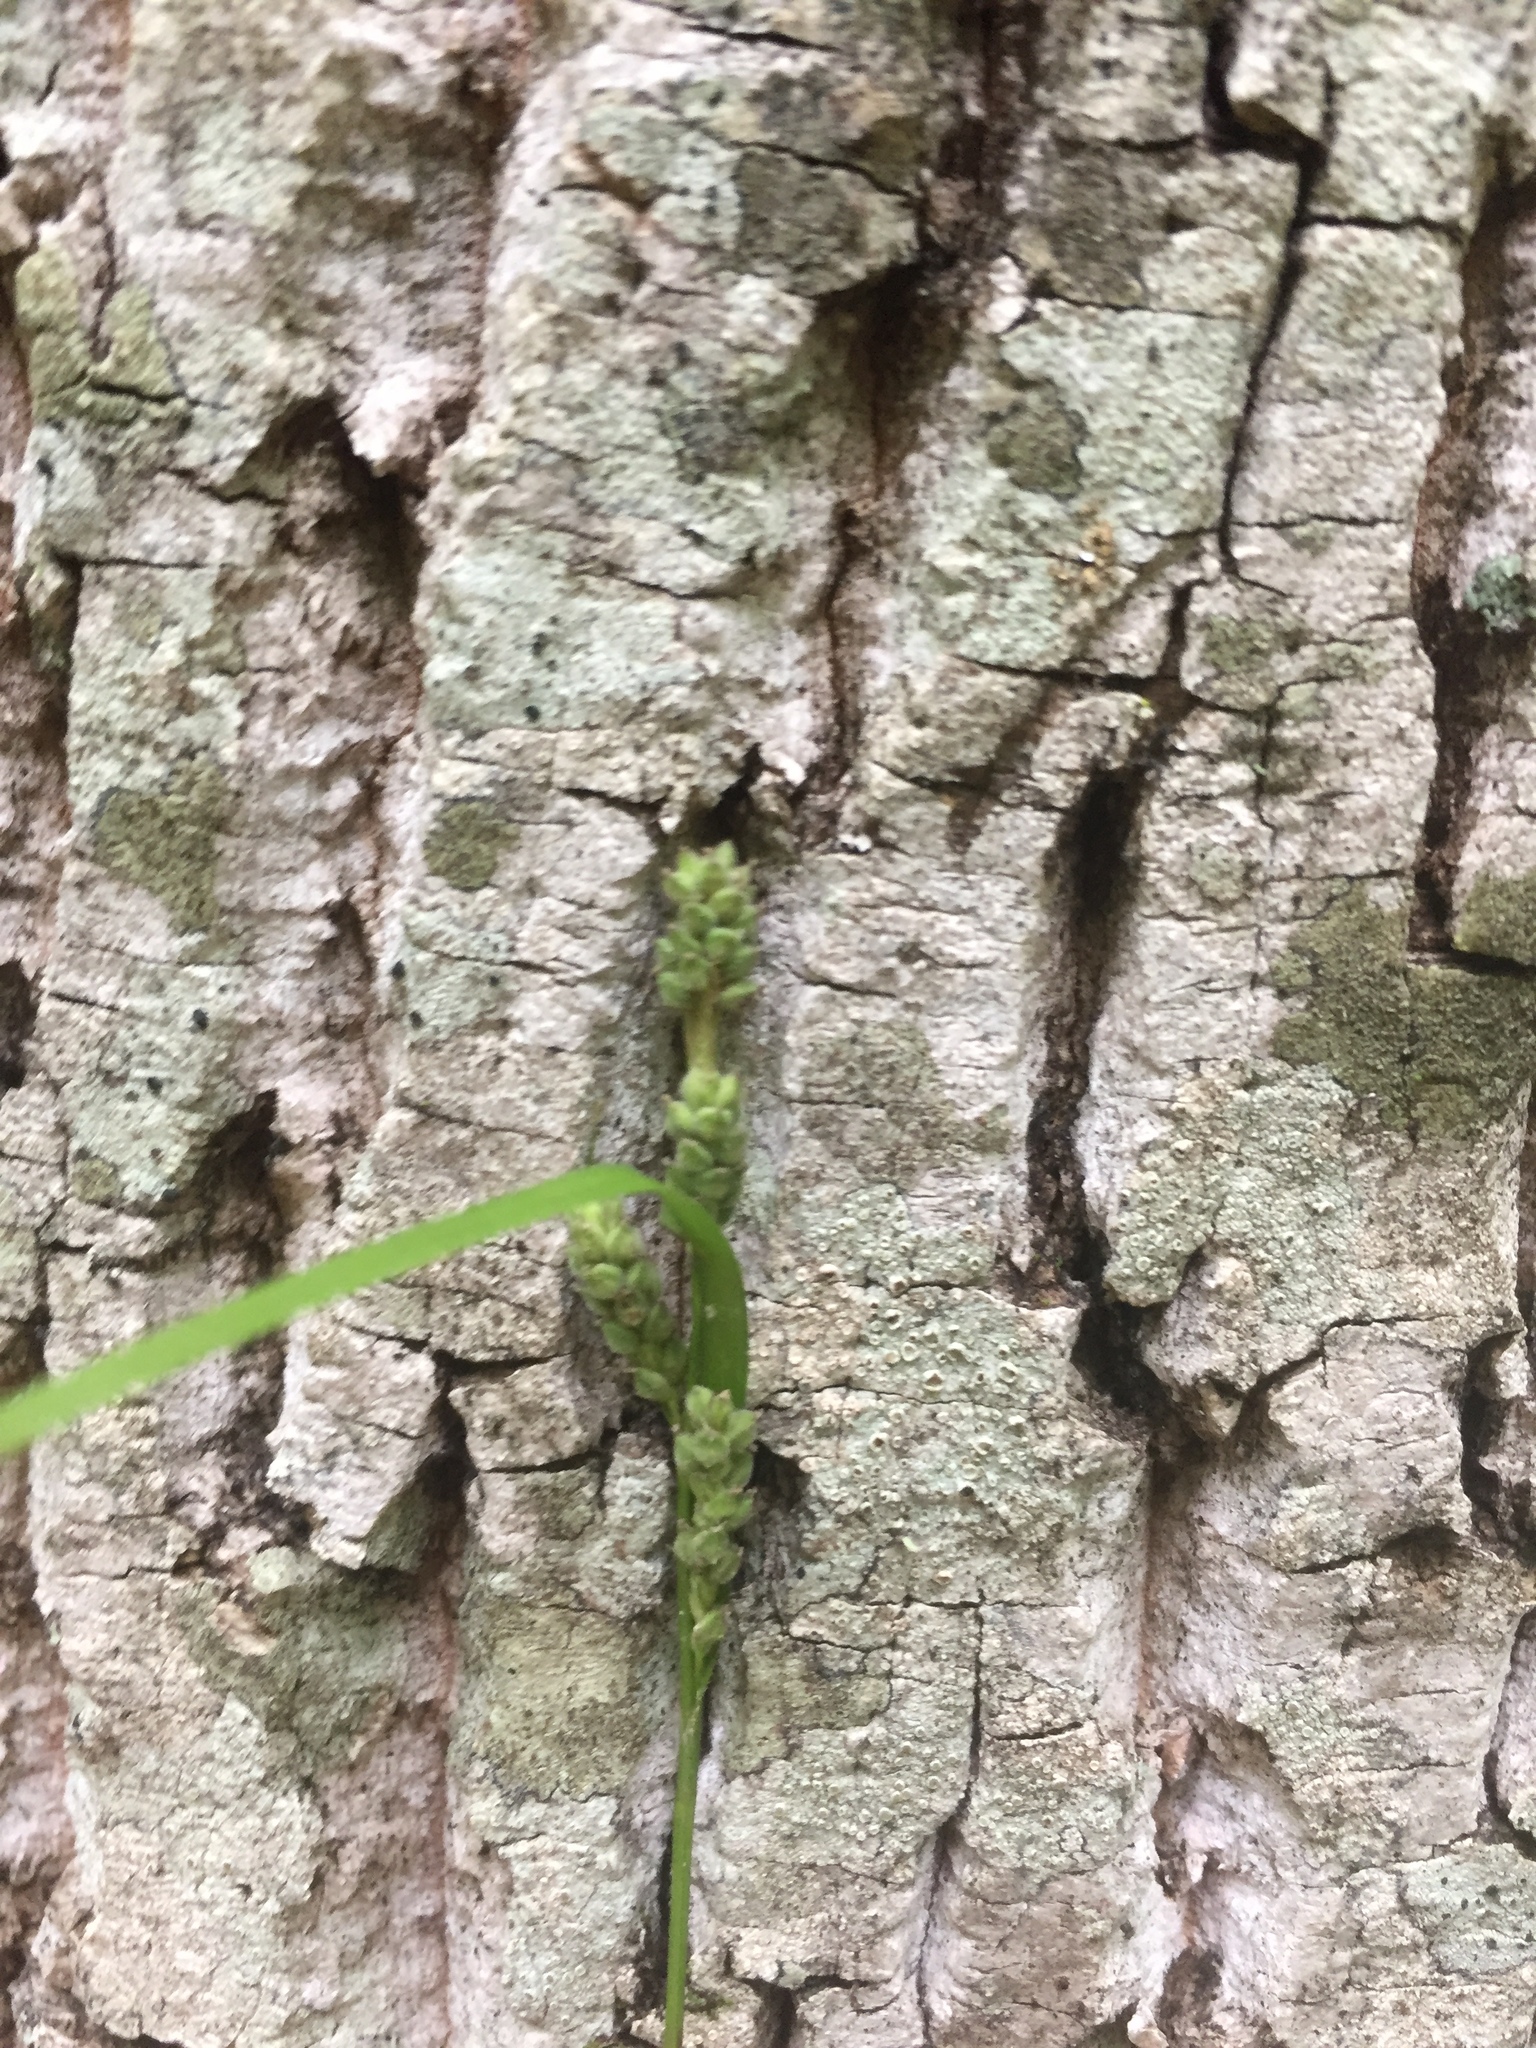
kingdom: Plantae
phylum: Tracheophyta
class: Liliopsida
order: Poales
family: Cyperaceae
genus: Carex
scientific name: Carex swanii
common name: Downy green sedge
